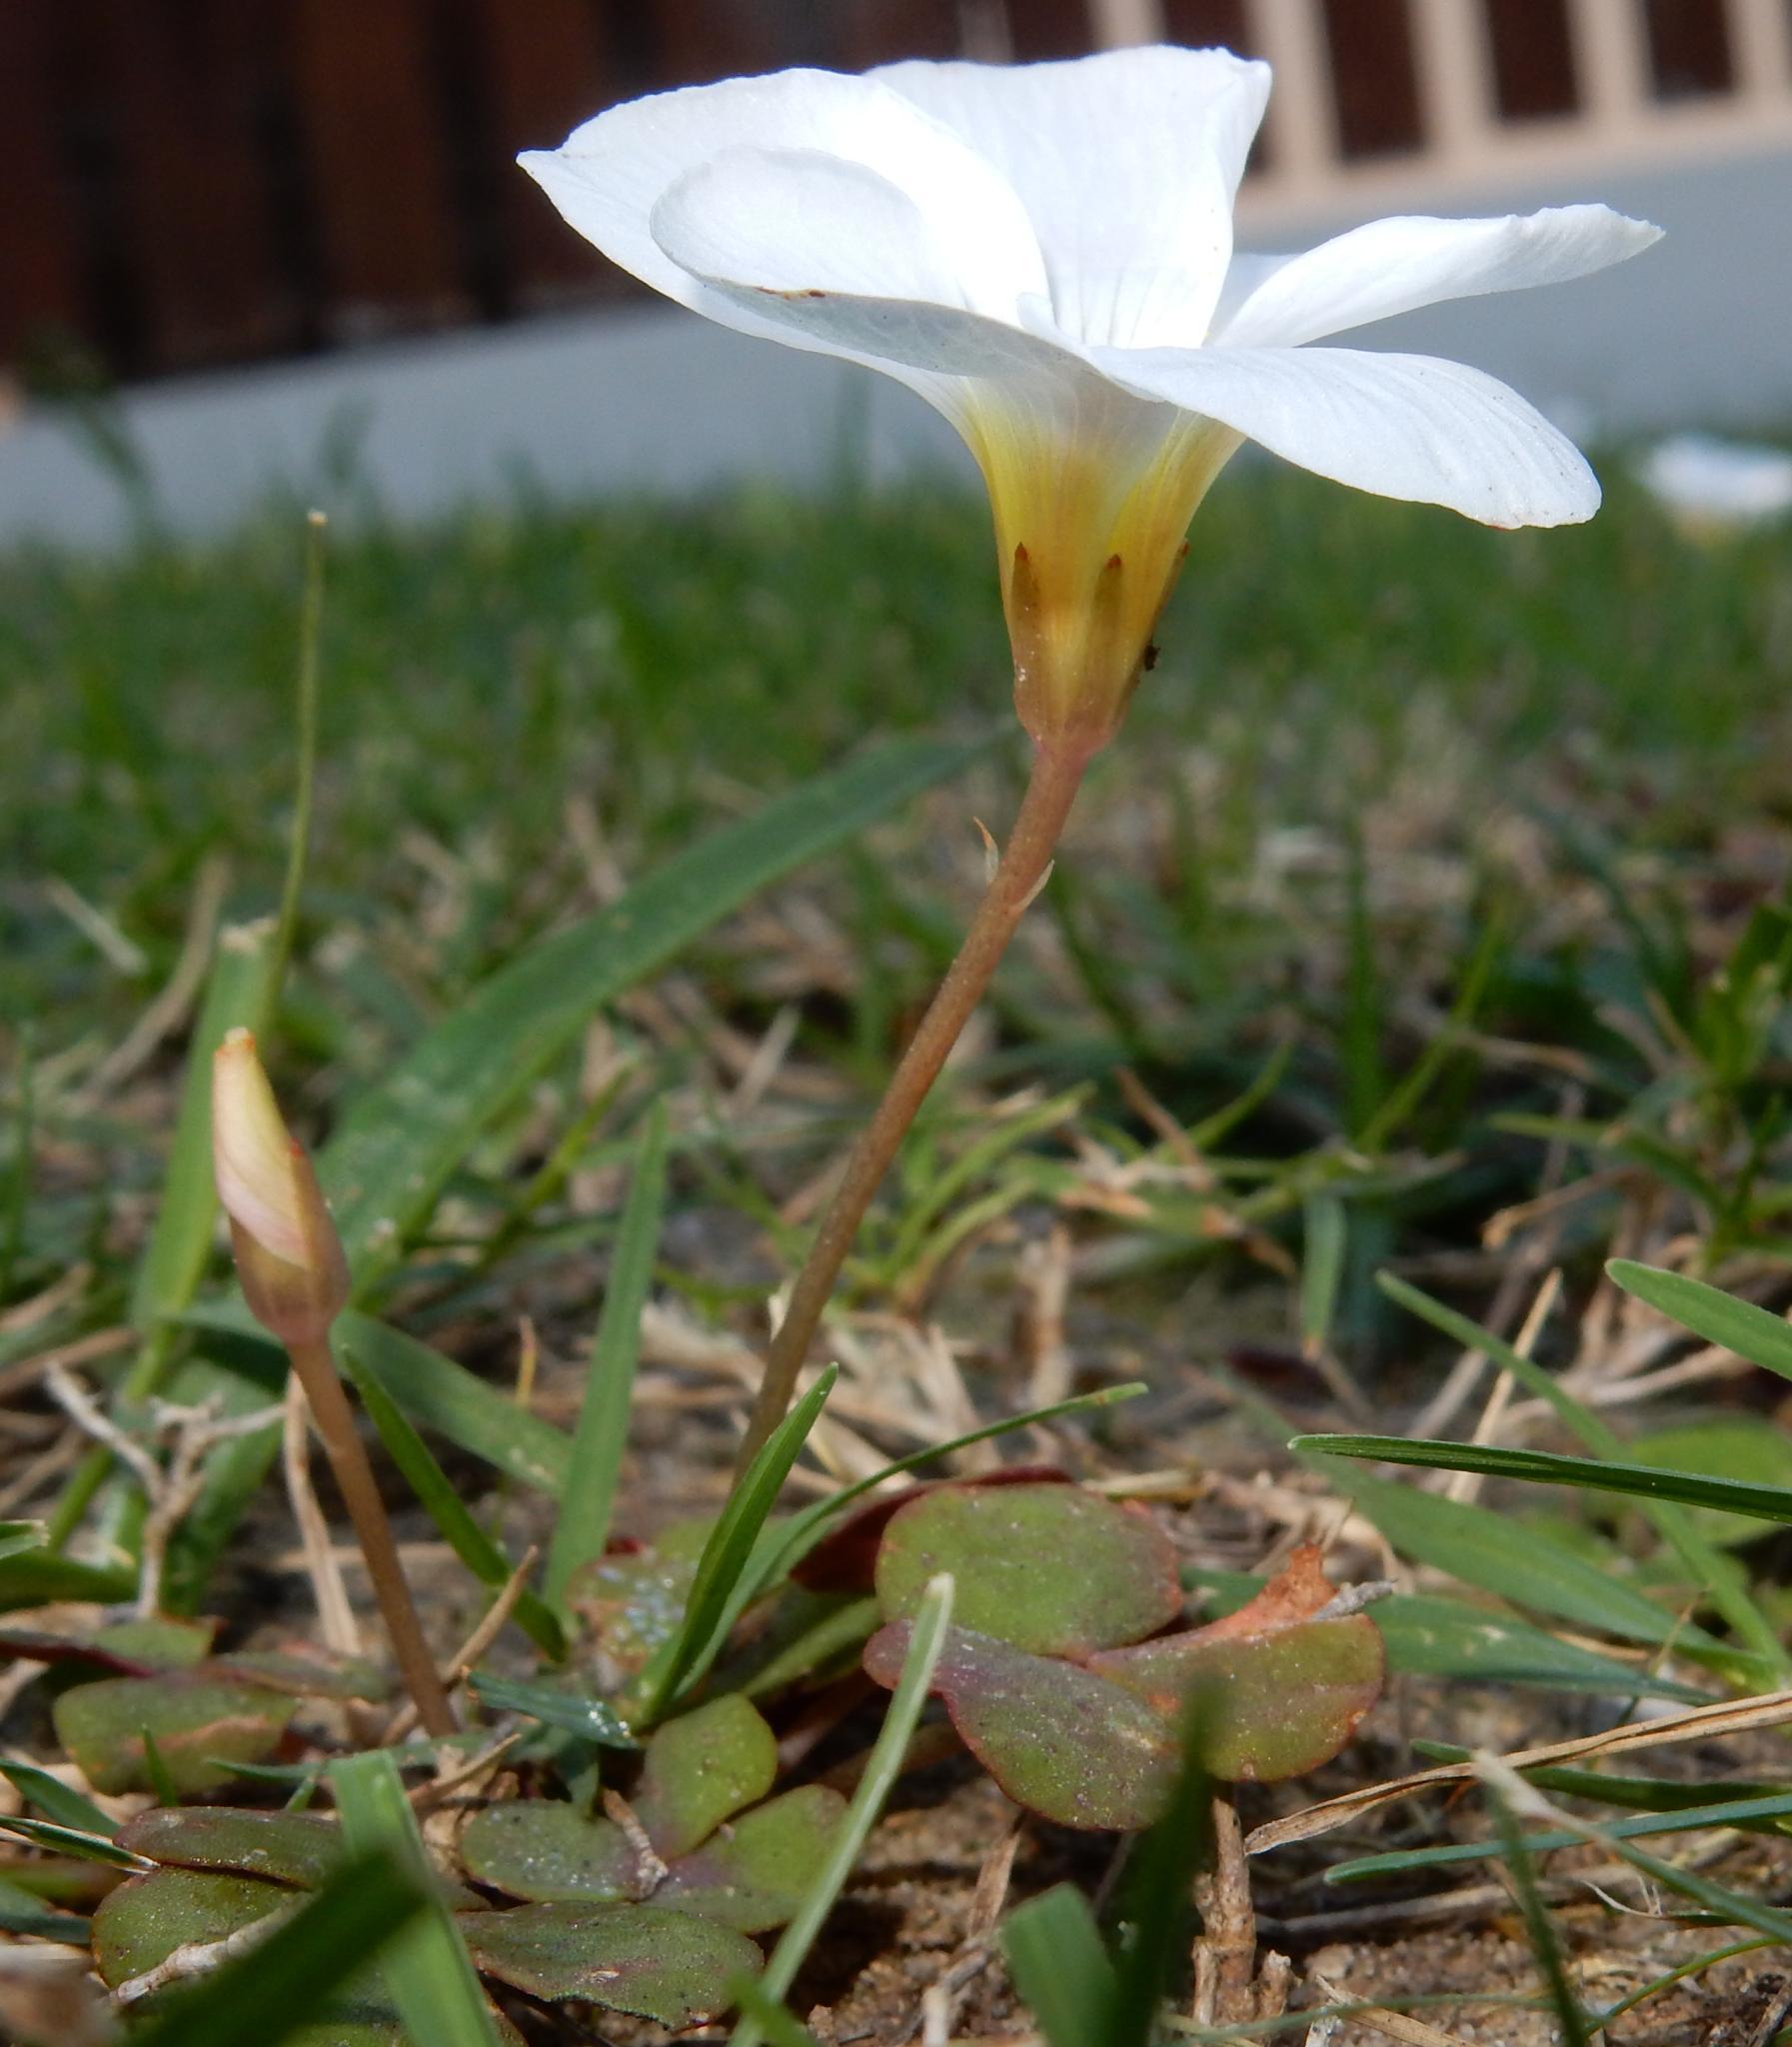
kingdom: Plantae
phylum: Tracheophyta
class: Magnoliopsida
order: Oxalidales
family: Oxalidaceae
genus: Oxalis
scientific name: Oxalis depressa
